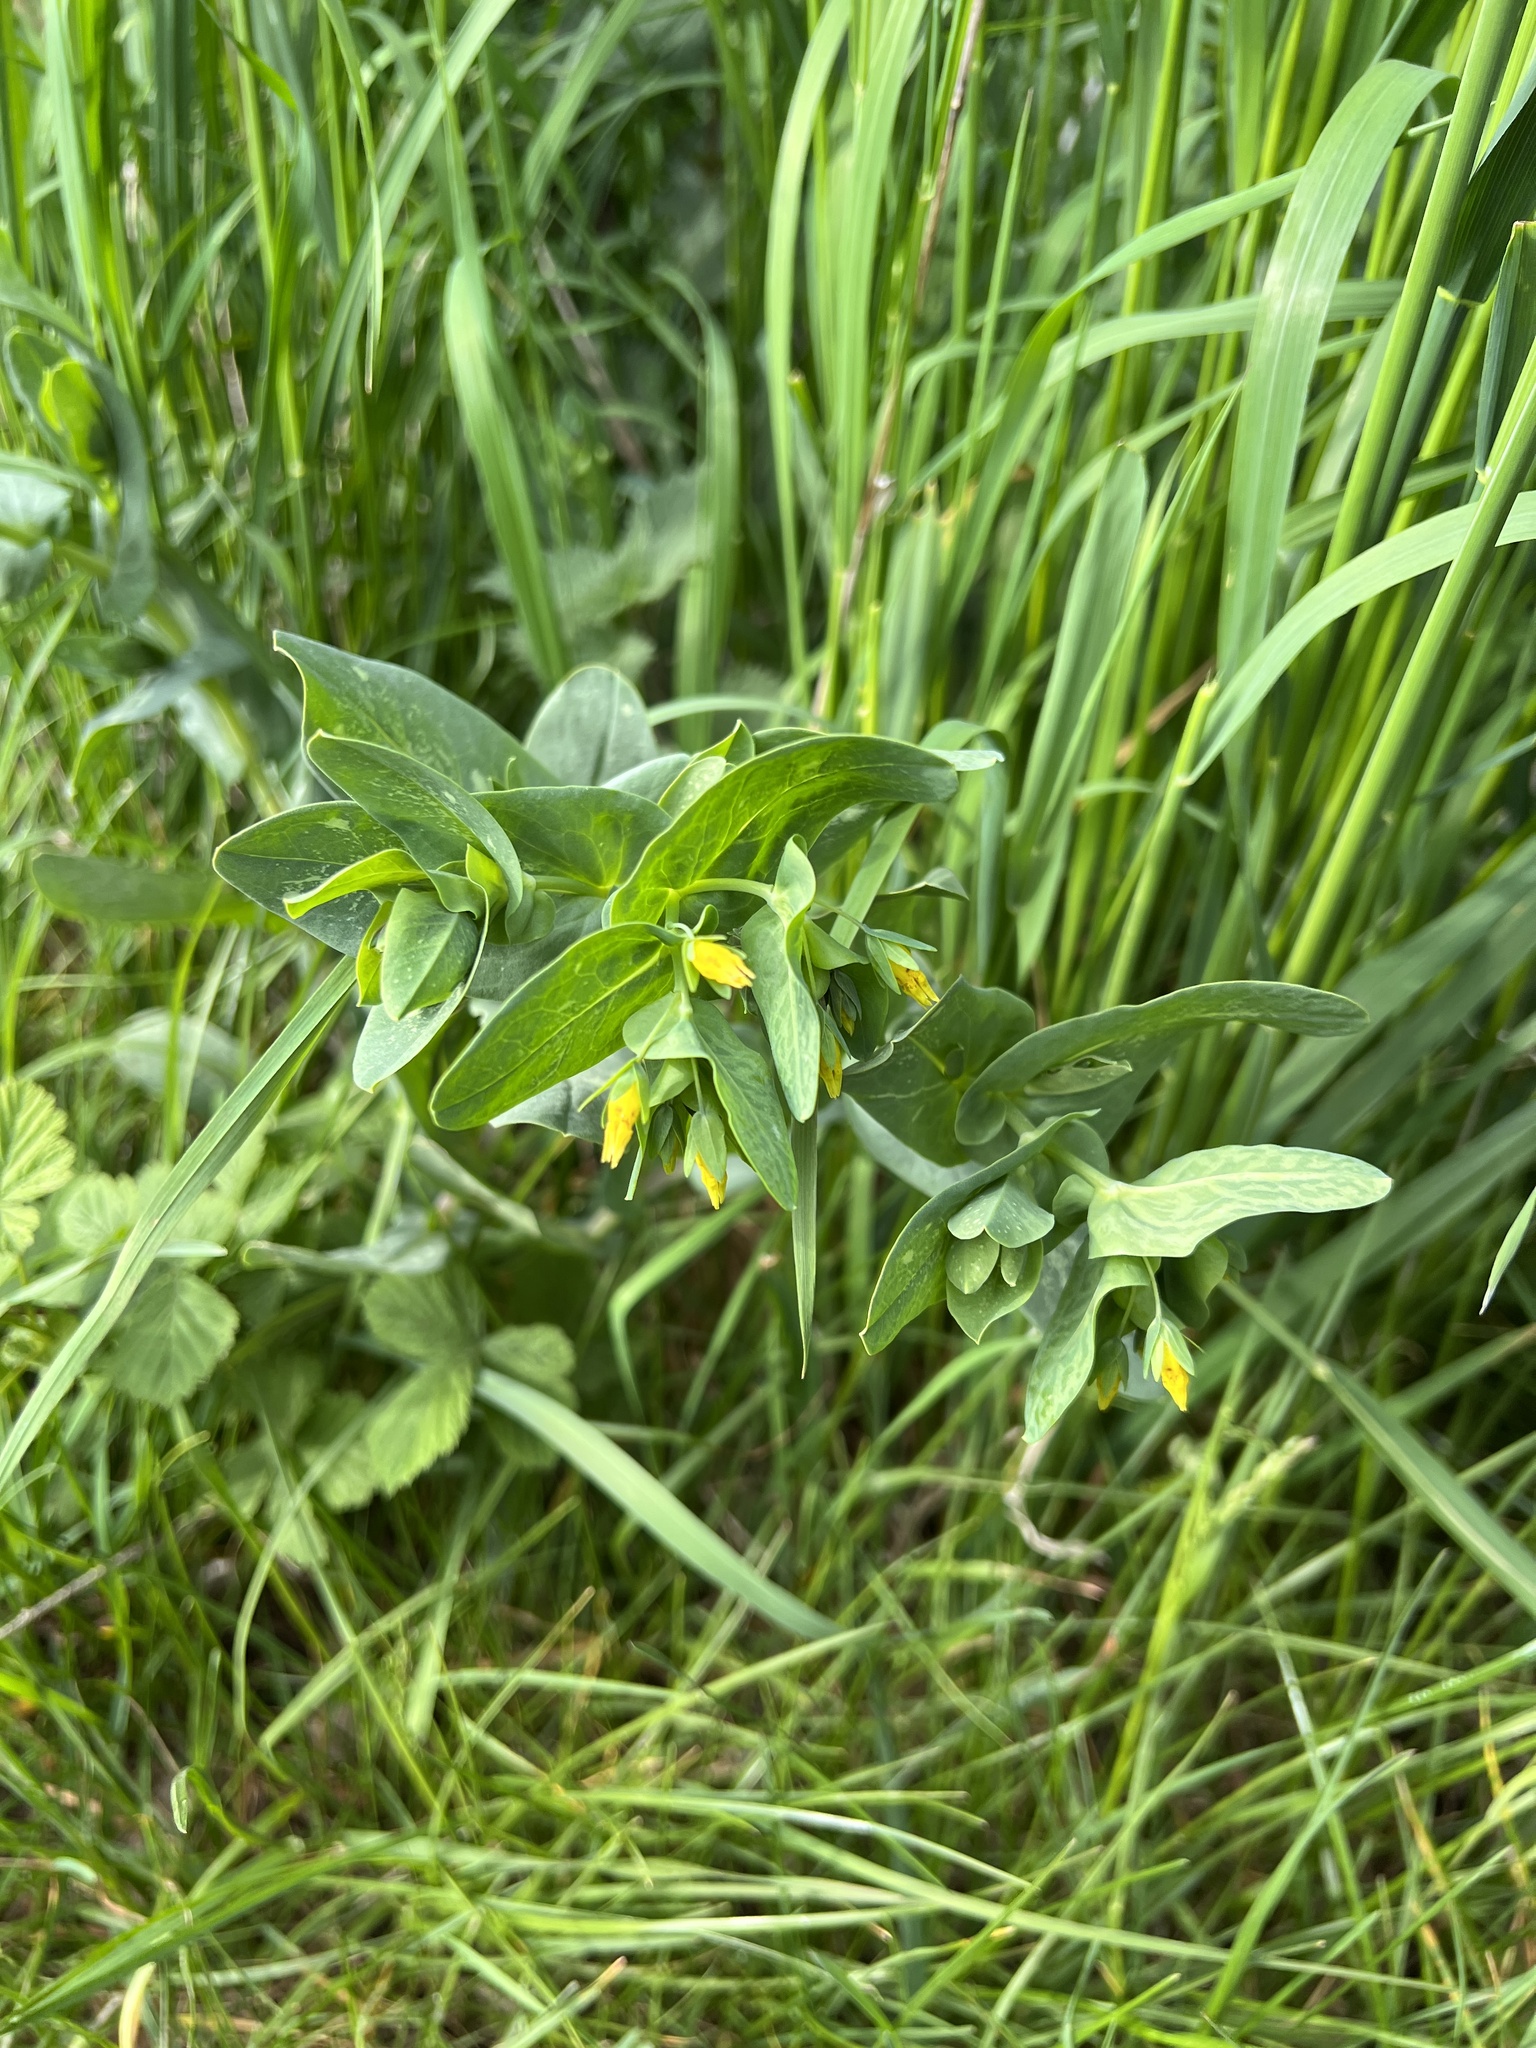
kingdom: Plantae
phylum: Tracheophyta
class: Magnoliopsida
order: Boraginales
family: Boraginaceae
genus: Cerinthe
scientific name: Cerinthe minor
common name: Lesser honeywort
